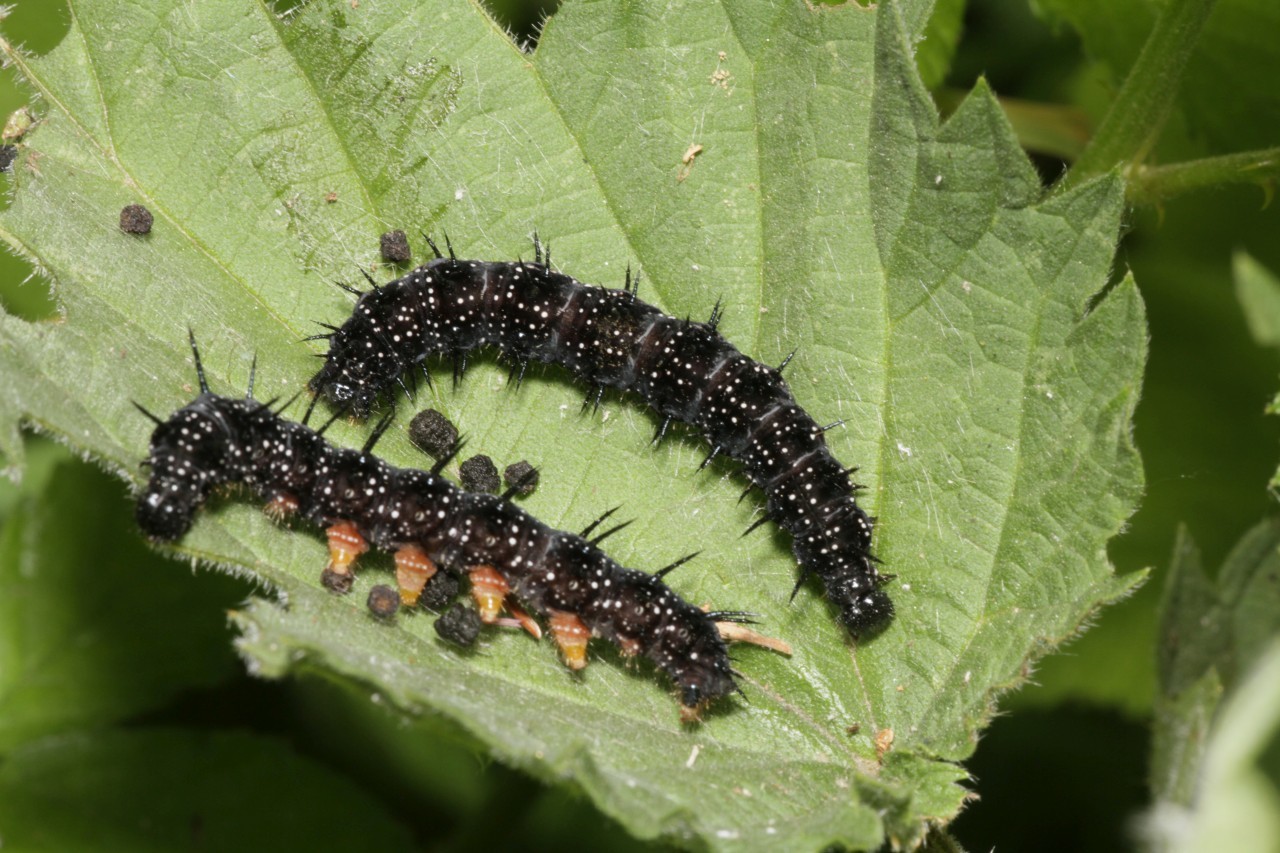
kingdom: Animalia
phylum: Arthropoda
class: Insecta
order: Lepidoptera
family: Nymphalidae
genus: Aglais
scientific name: Aglais io
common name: Peacock
